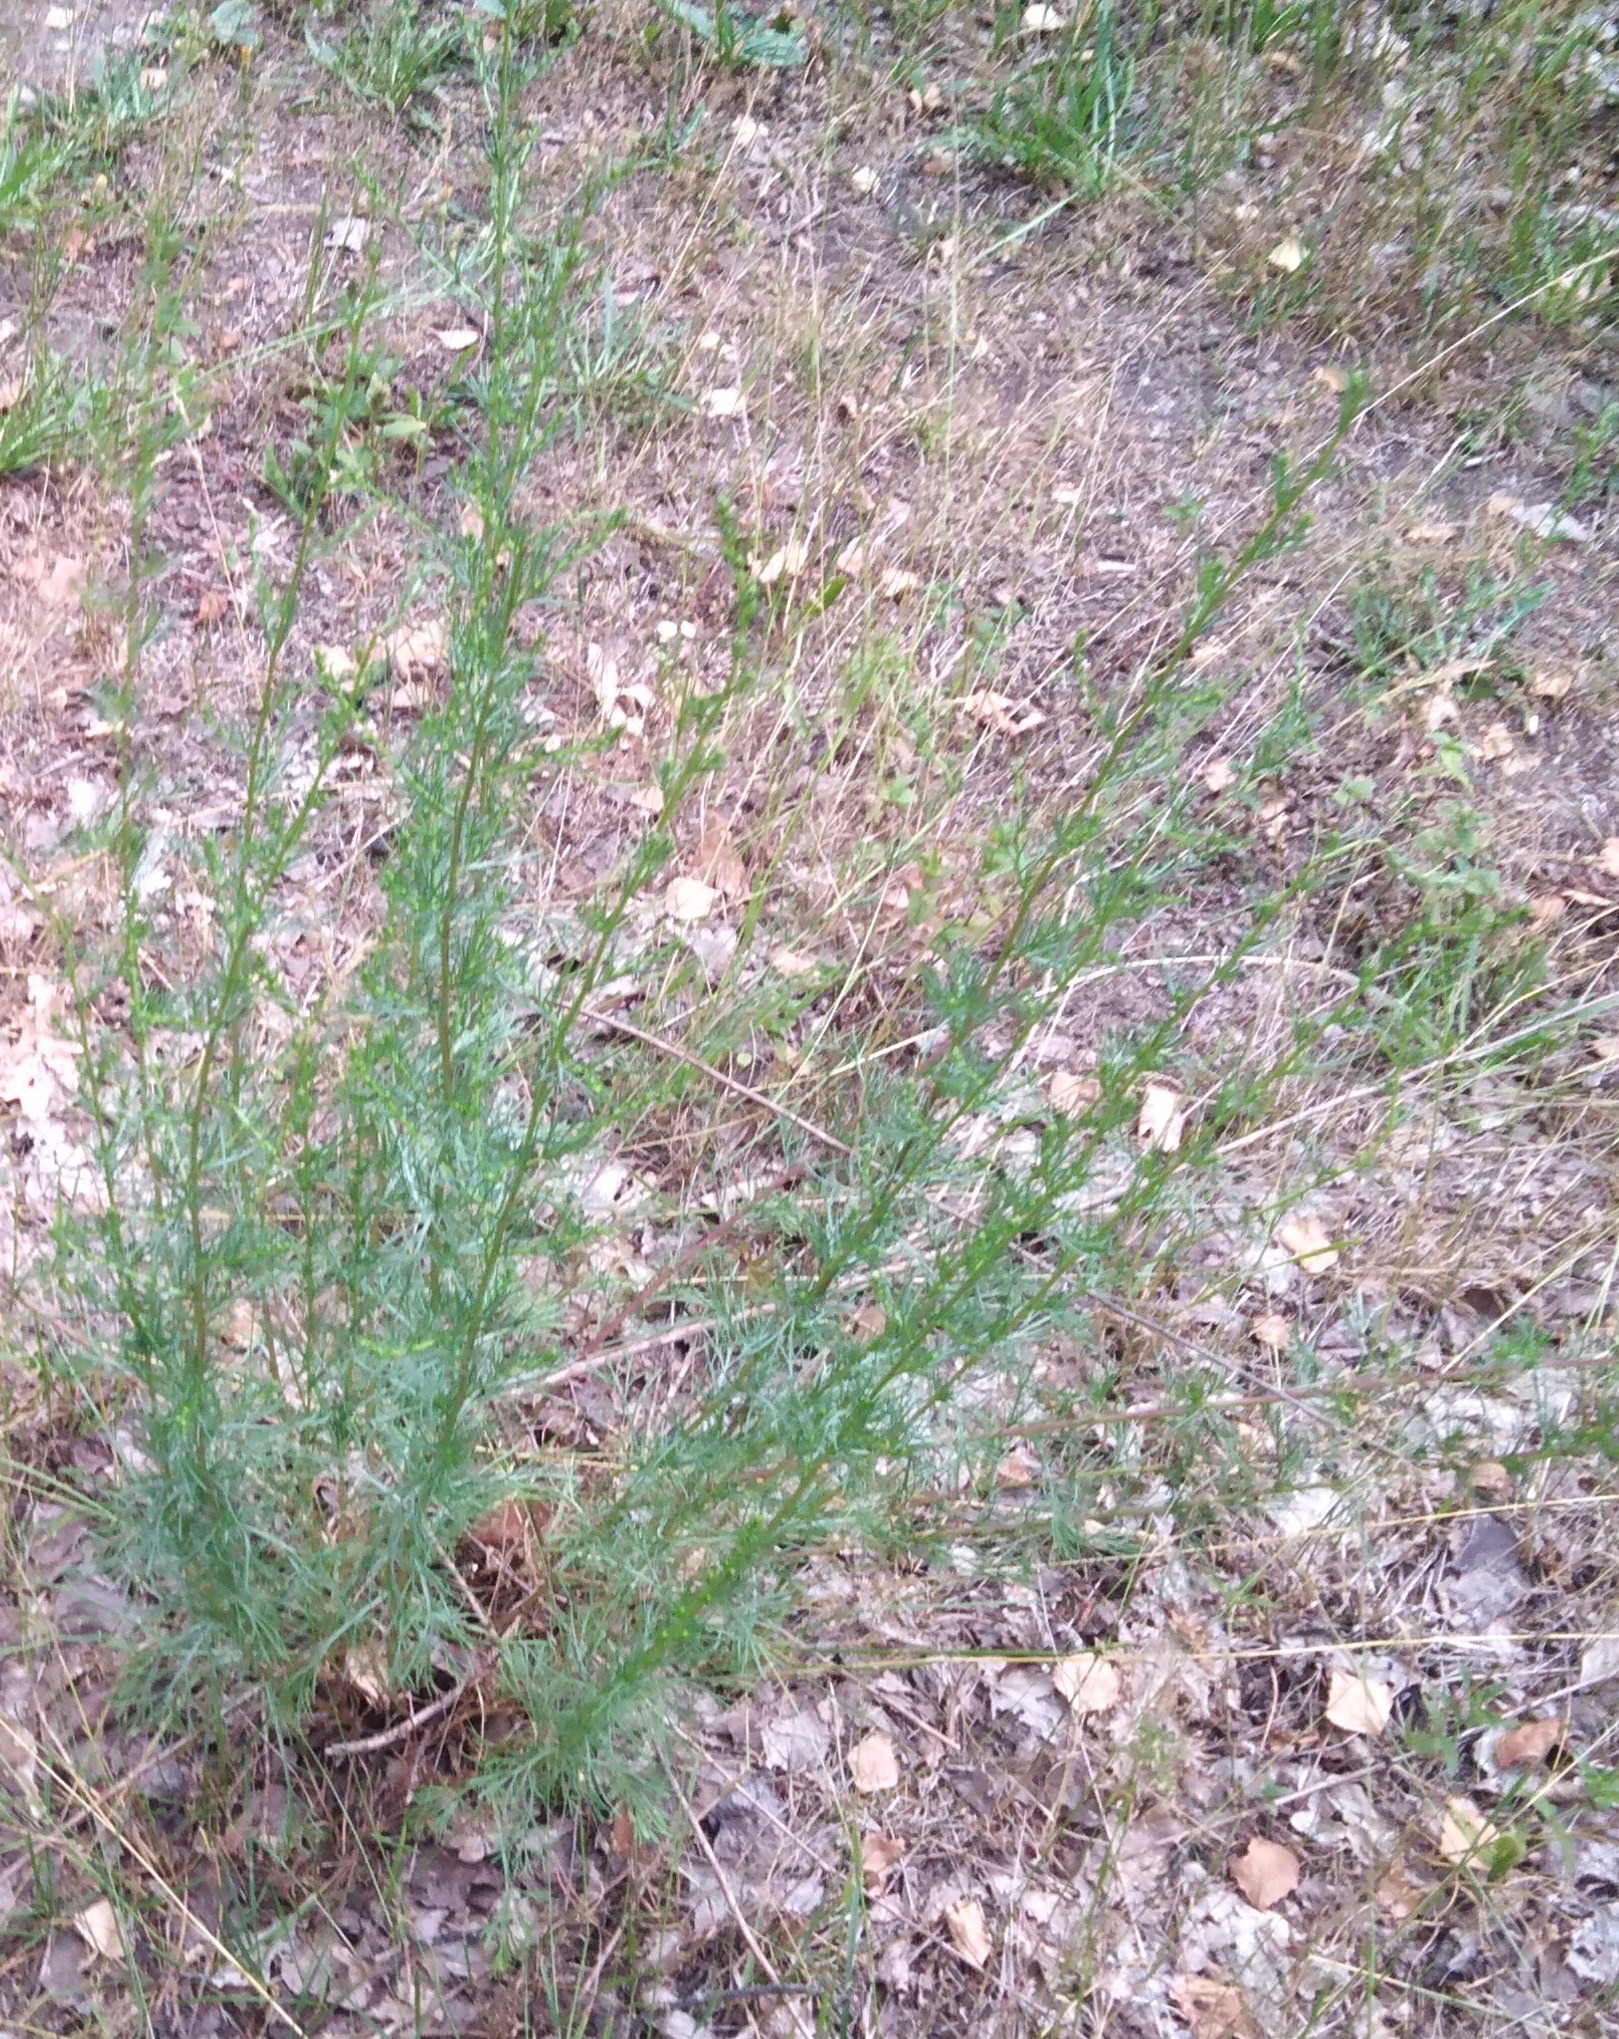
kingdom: Plantae
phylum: Tracheophyta
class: Magnoliopsida
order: Asterales
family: Asteraceae
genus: Artemisia
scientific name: Artemisia campestris
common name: Field wormwood
